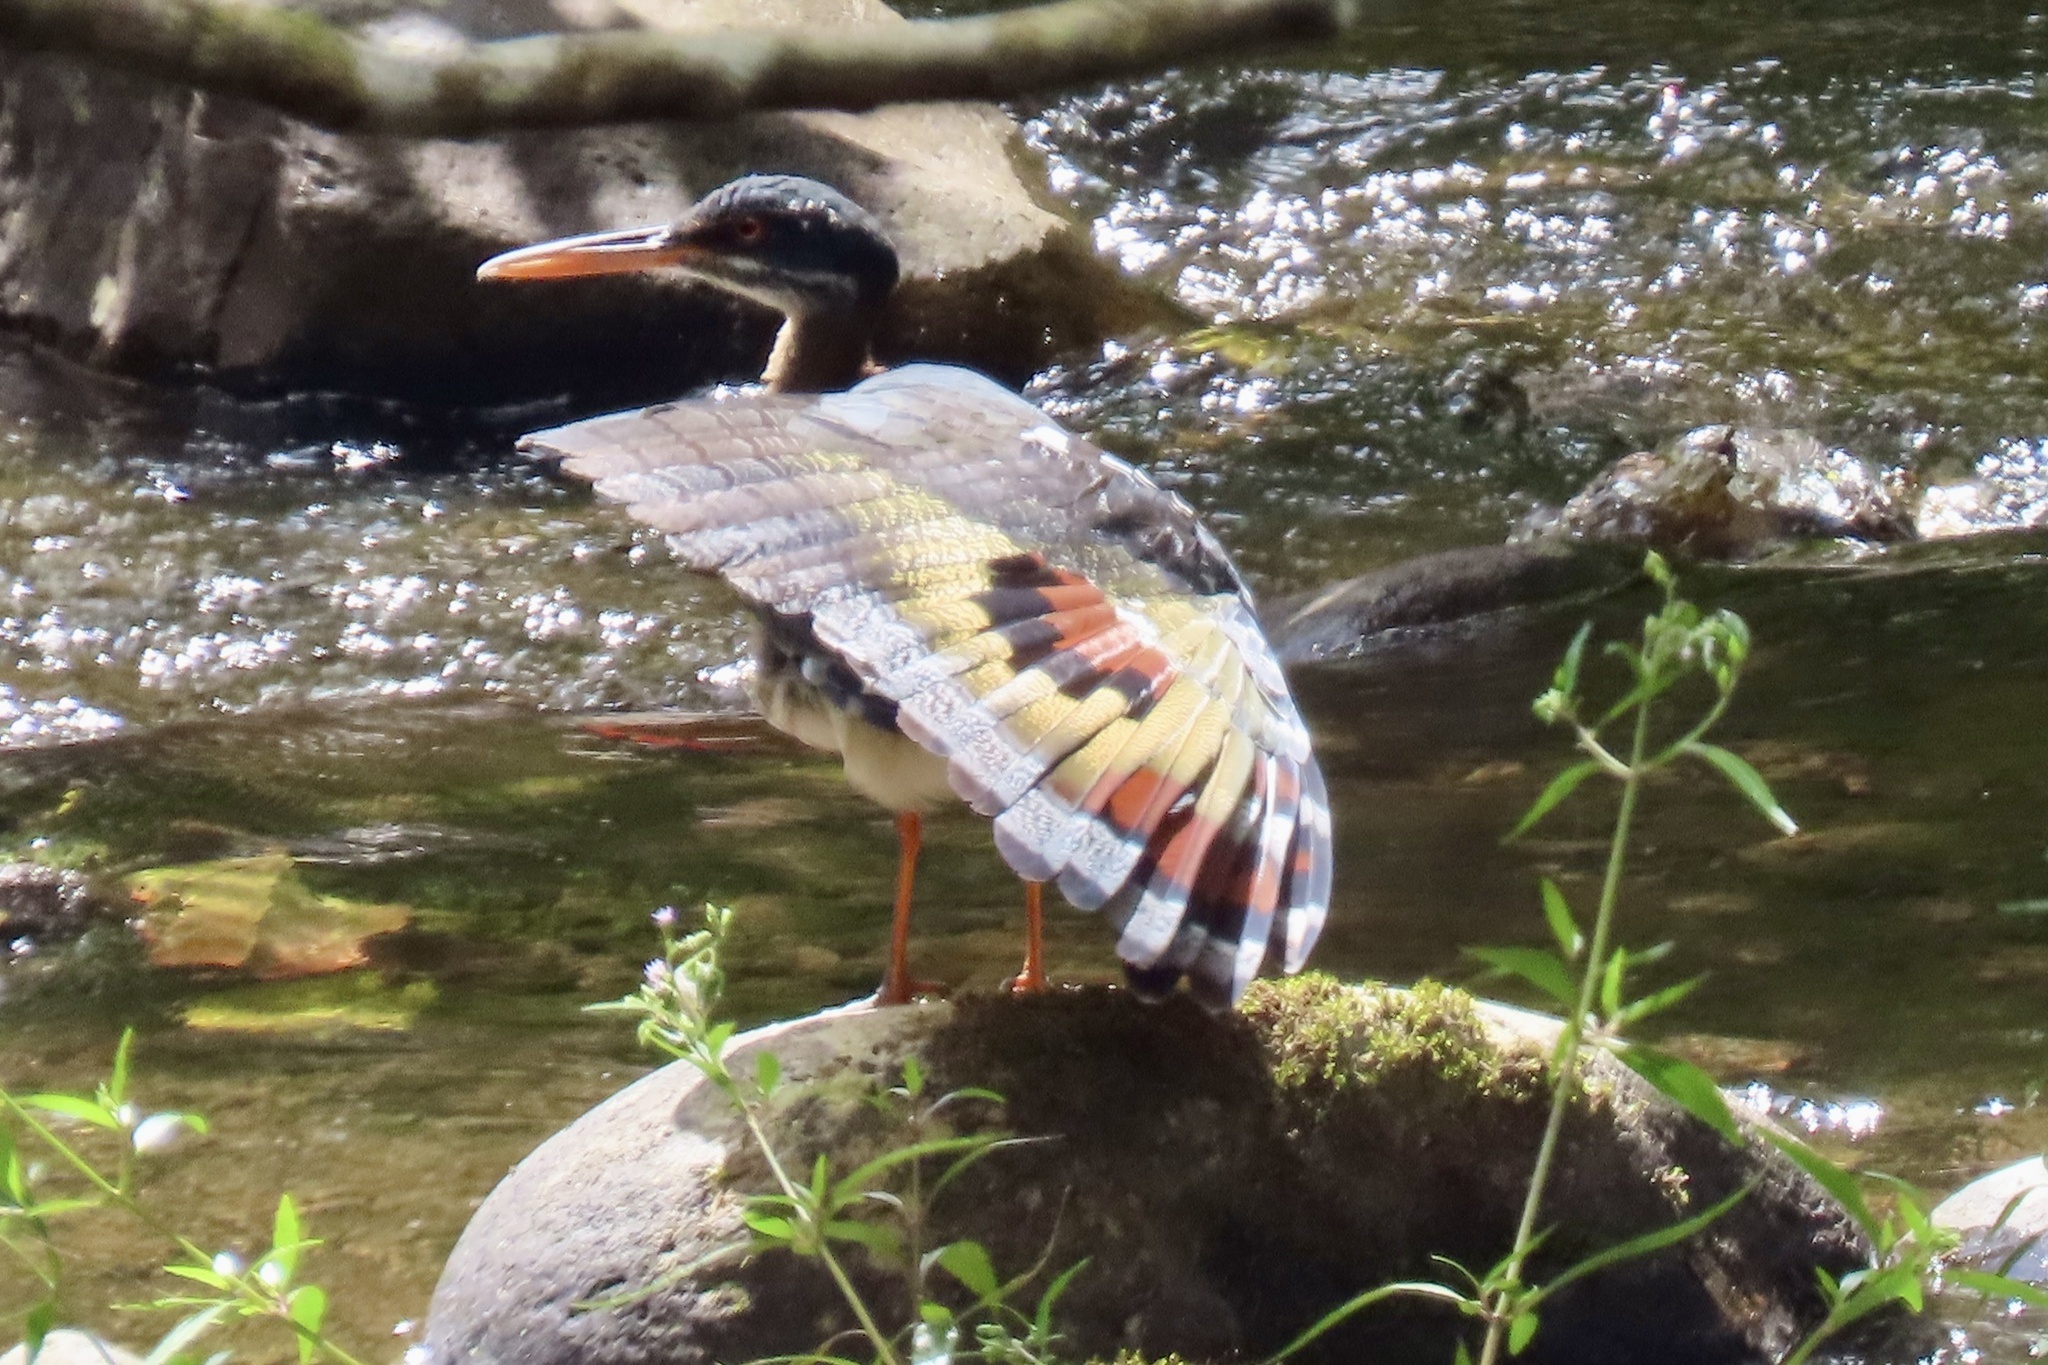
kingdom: Animalia
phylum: Chordata
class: Aves
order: Eurypygiformes
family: Eurypygidae
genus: Eurypyga
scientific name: Eurypyga helias
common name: Sunbittern
